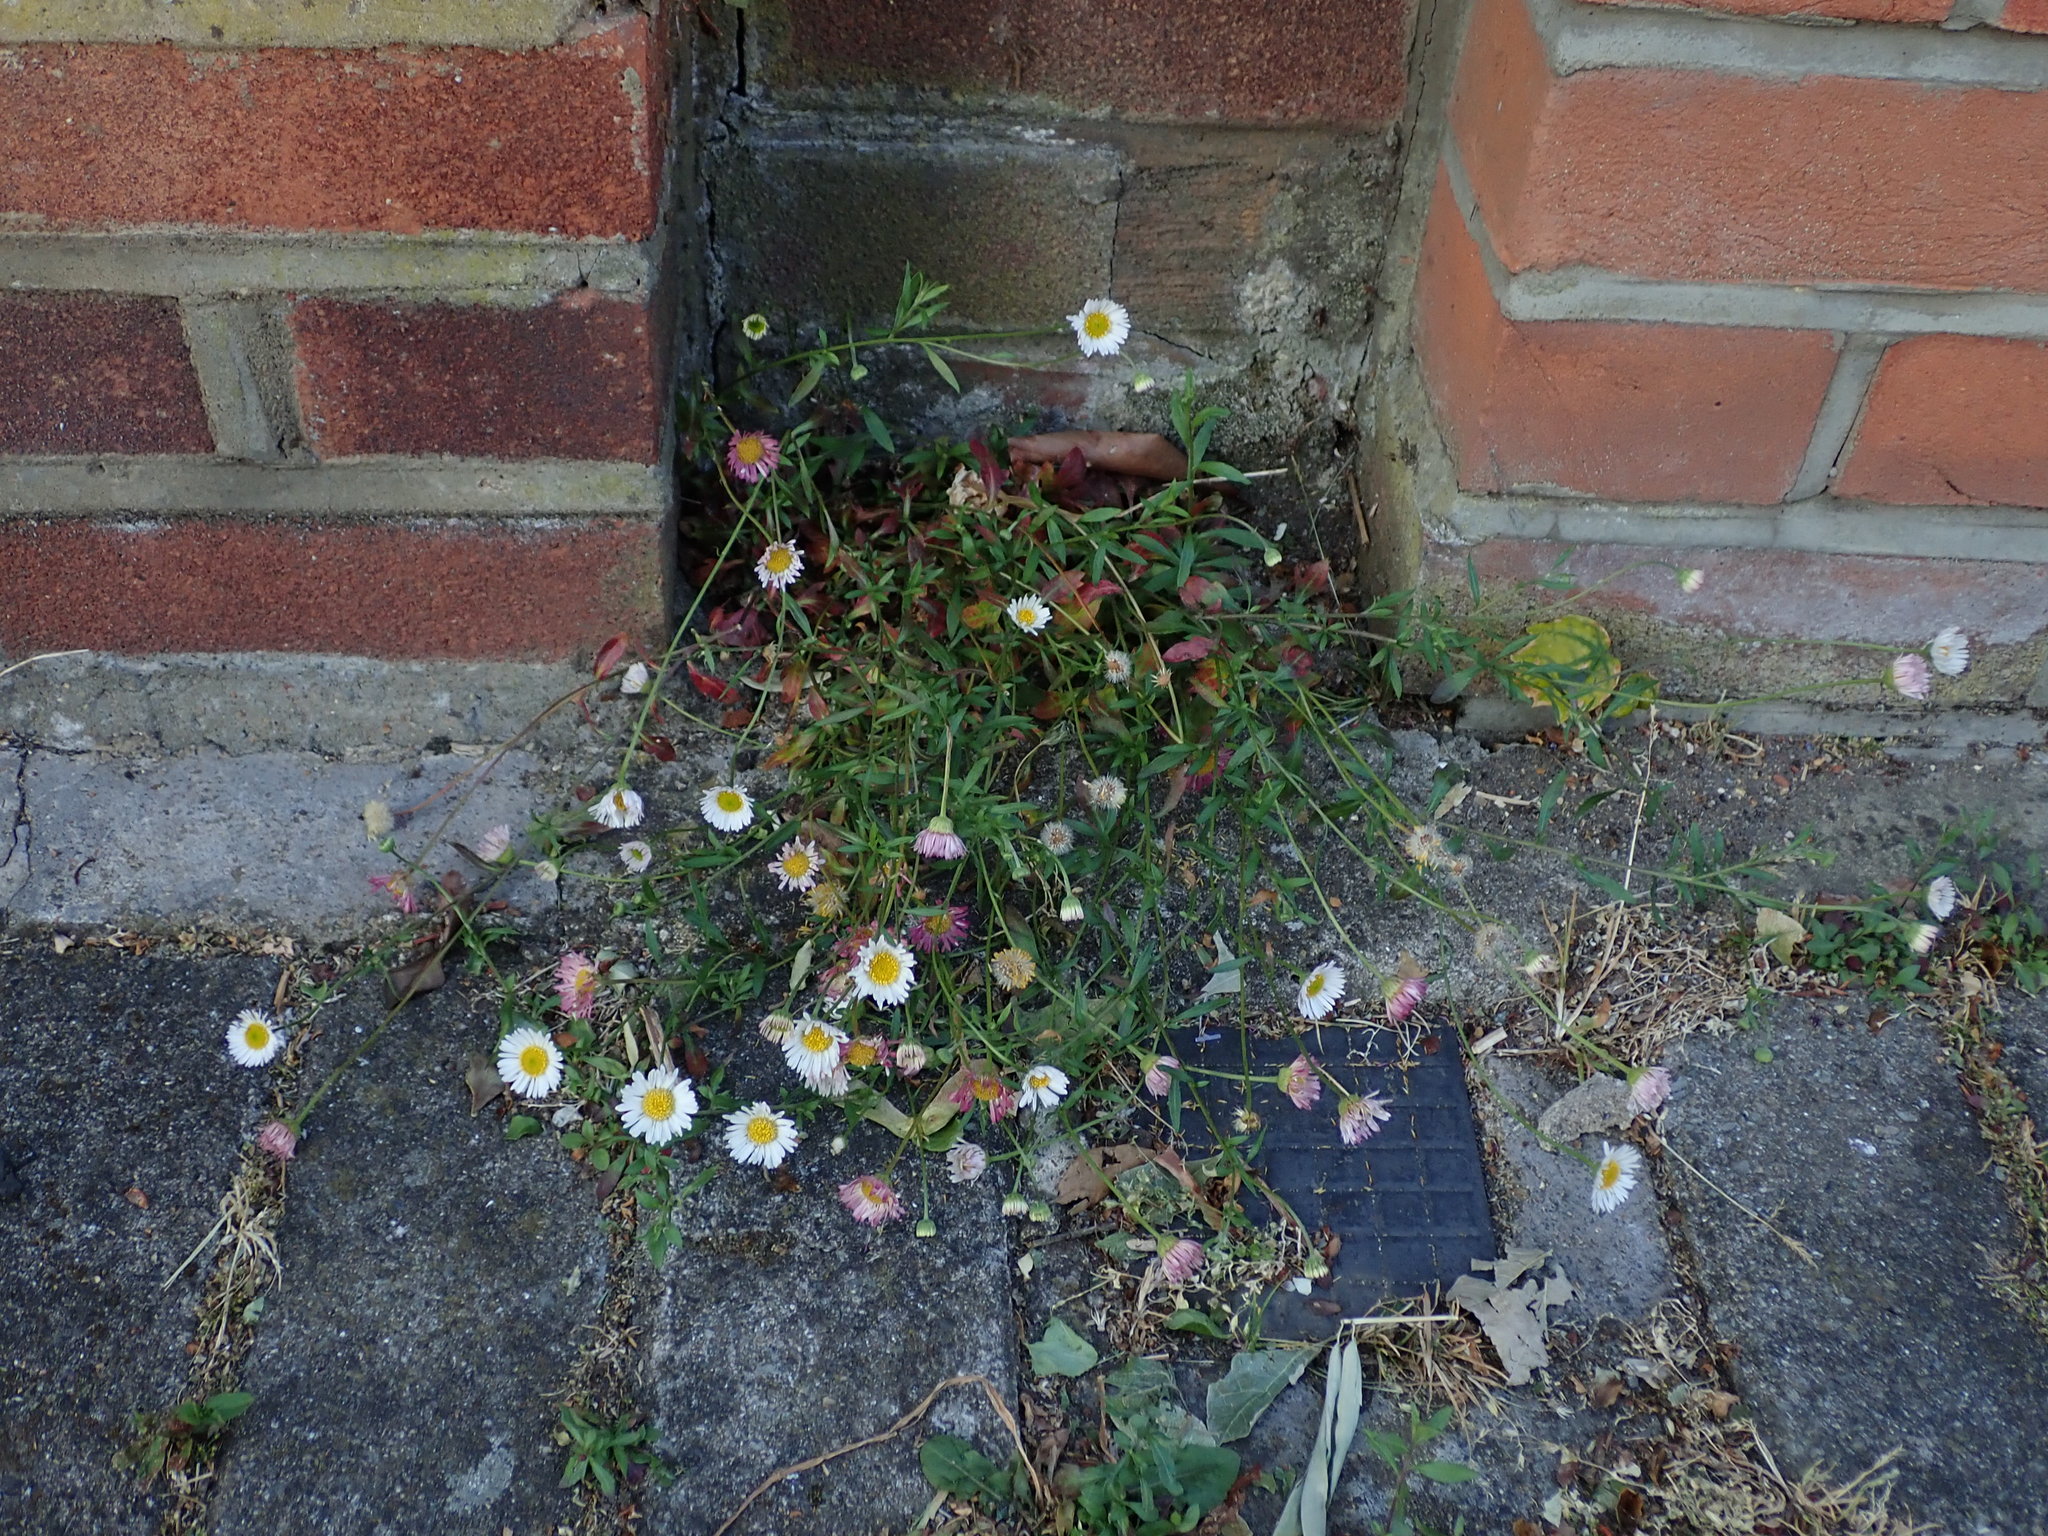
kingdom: Plantae
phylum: Tracheophyta
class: Magnoliopsida
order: Asterales
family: Asteraceae
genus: Erigeron
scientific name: Erigeron karvinskianus
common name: Mexican fleabane
